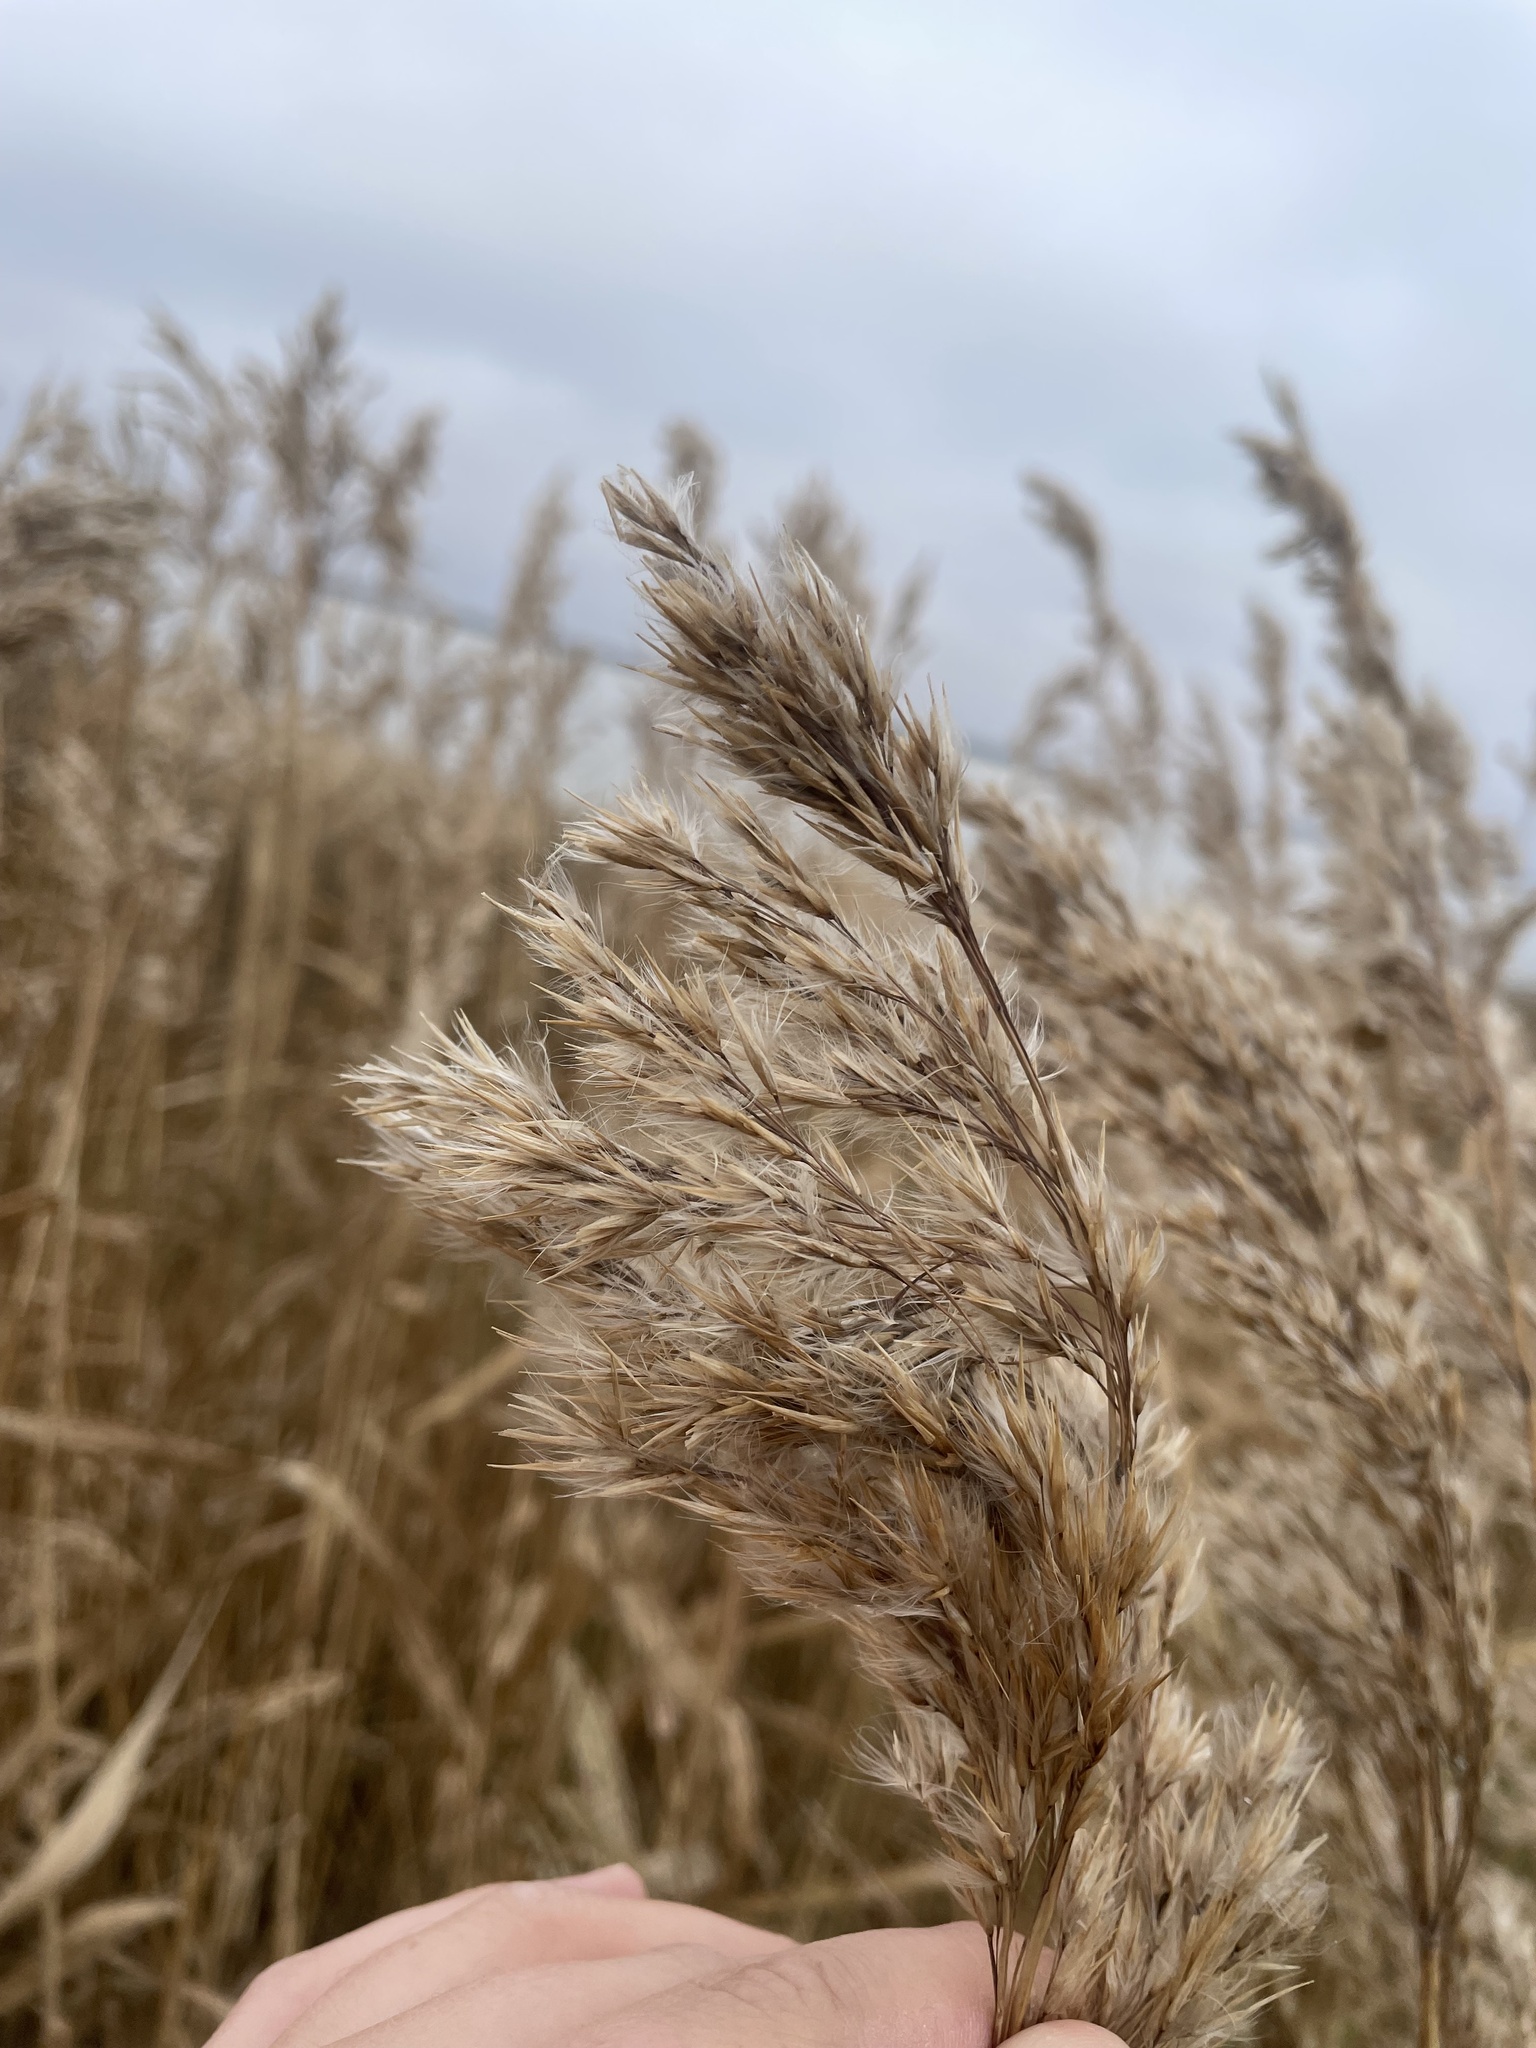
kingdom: Plantae
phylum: Tracheophyta
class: Liliopsida
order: Poales
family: Poaceae
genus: Phragmites
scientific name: Phragmites australis
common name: Common reed
